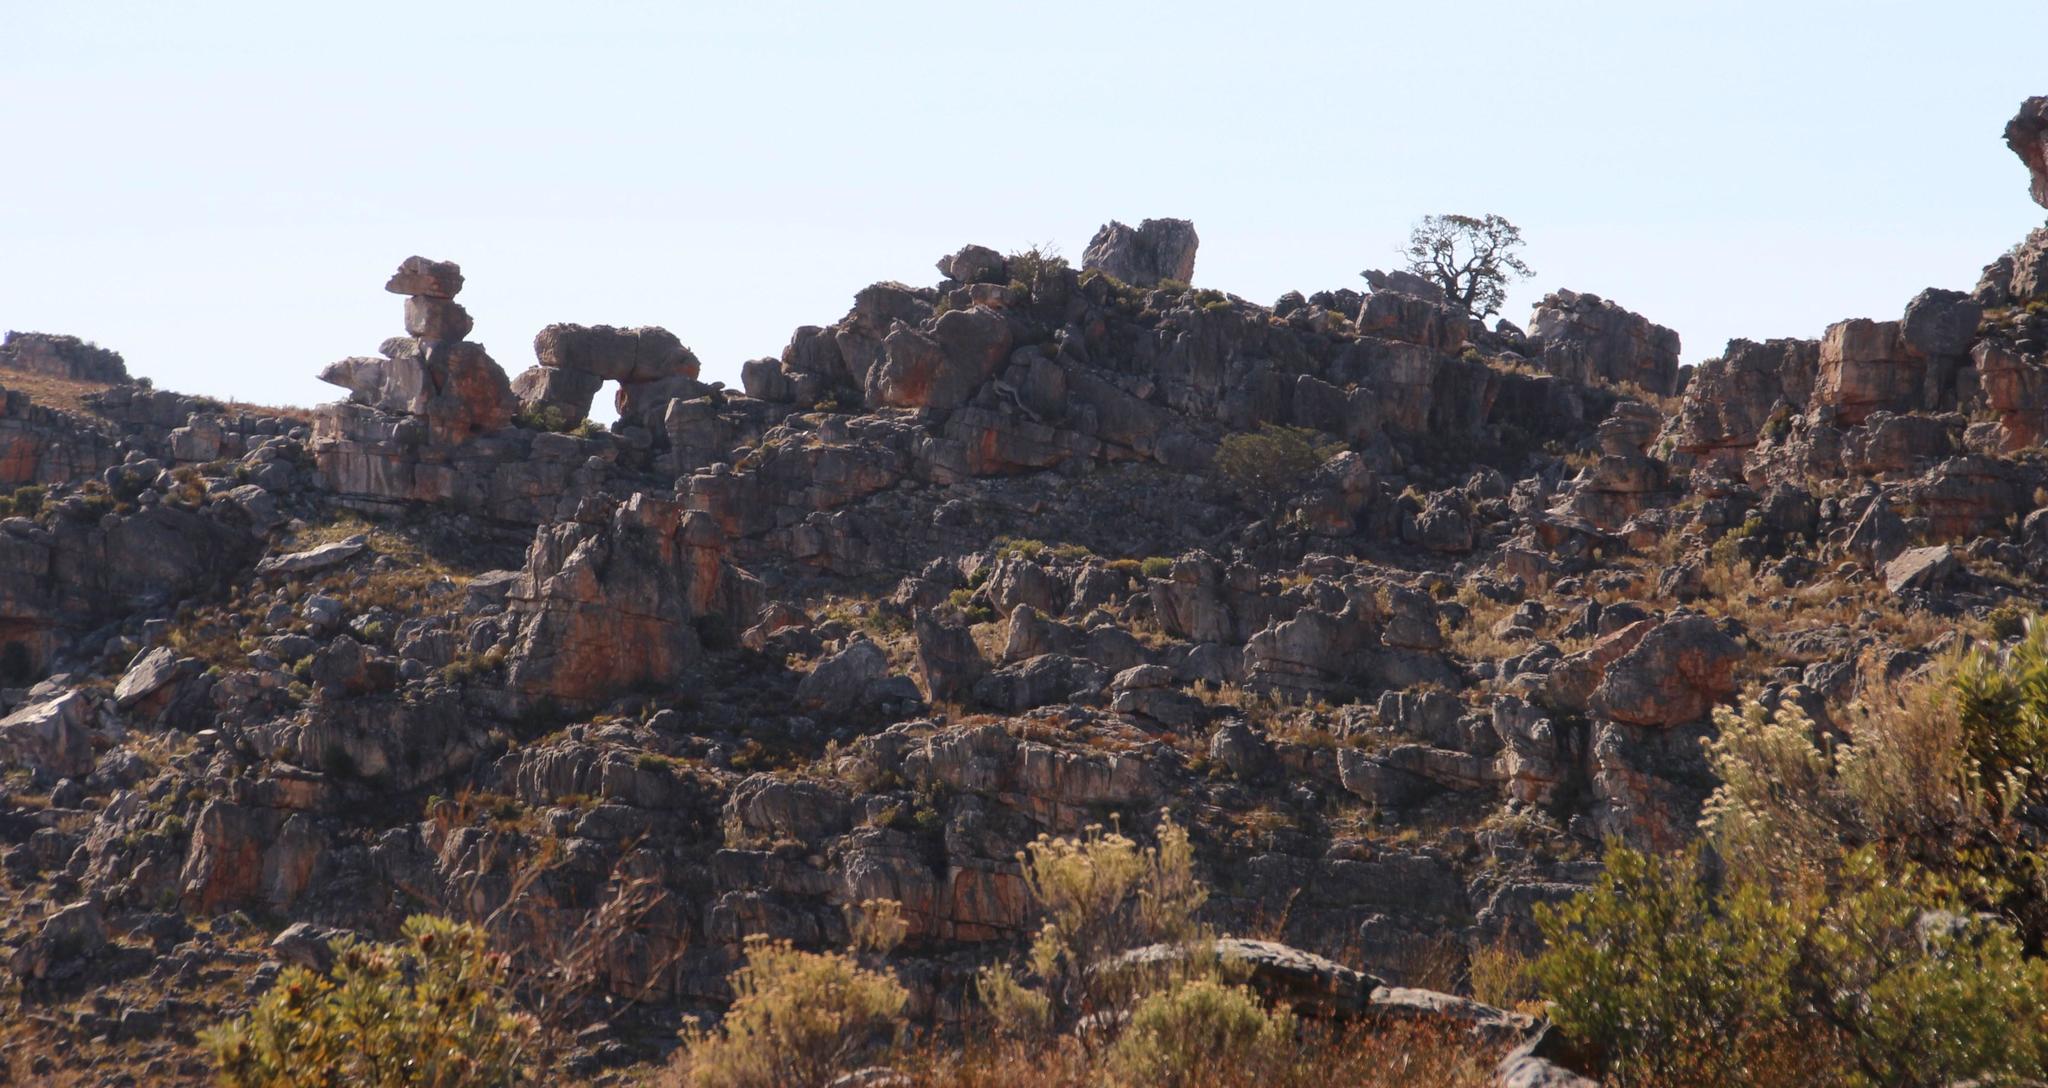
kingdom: Plantae
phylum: Tracheophyta
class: Pinopsida
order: Pinales
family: Cupressaceae
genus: Widdringtonia
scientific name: Widdringtonia nodiflora
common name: Cape cypress
